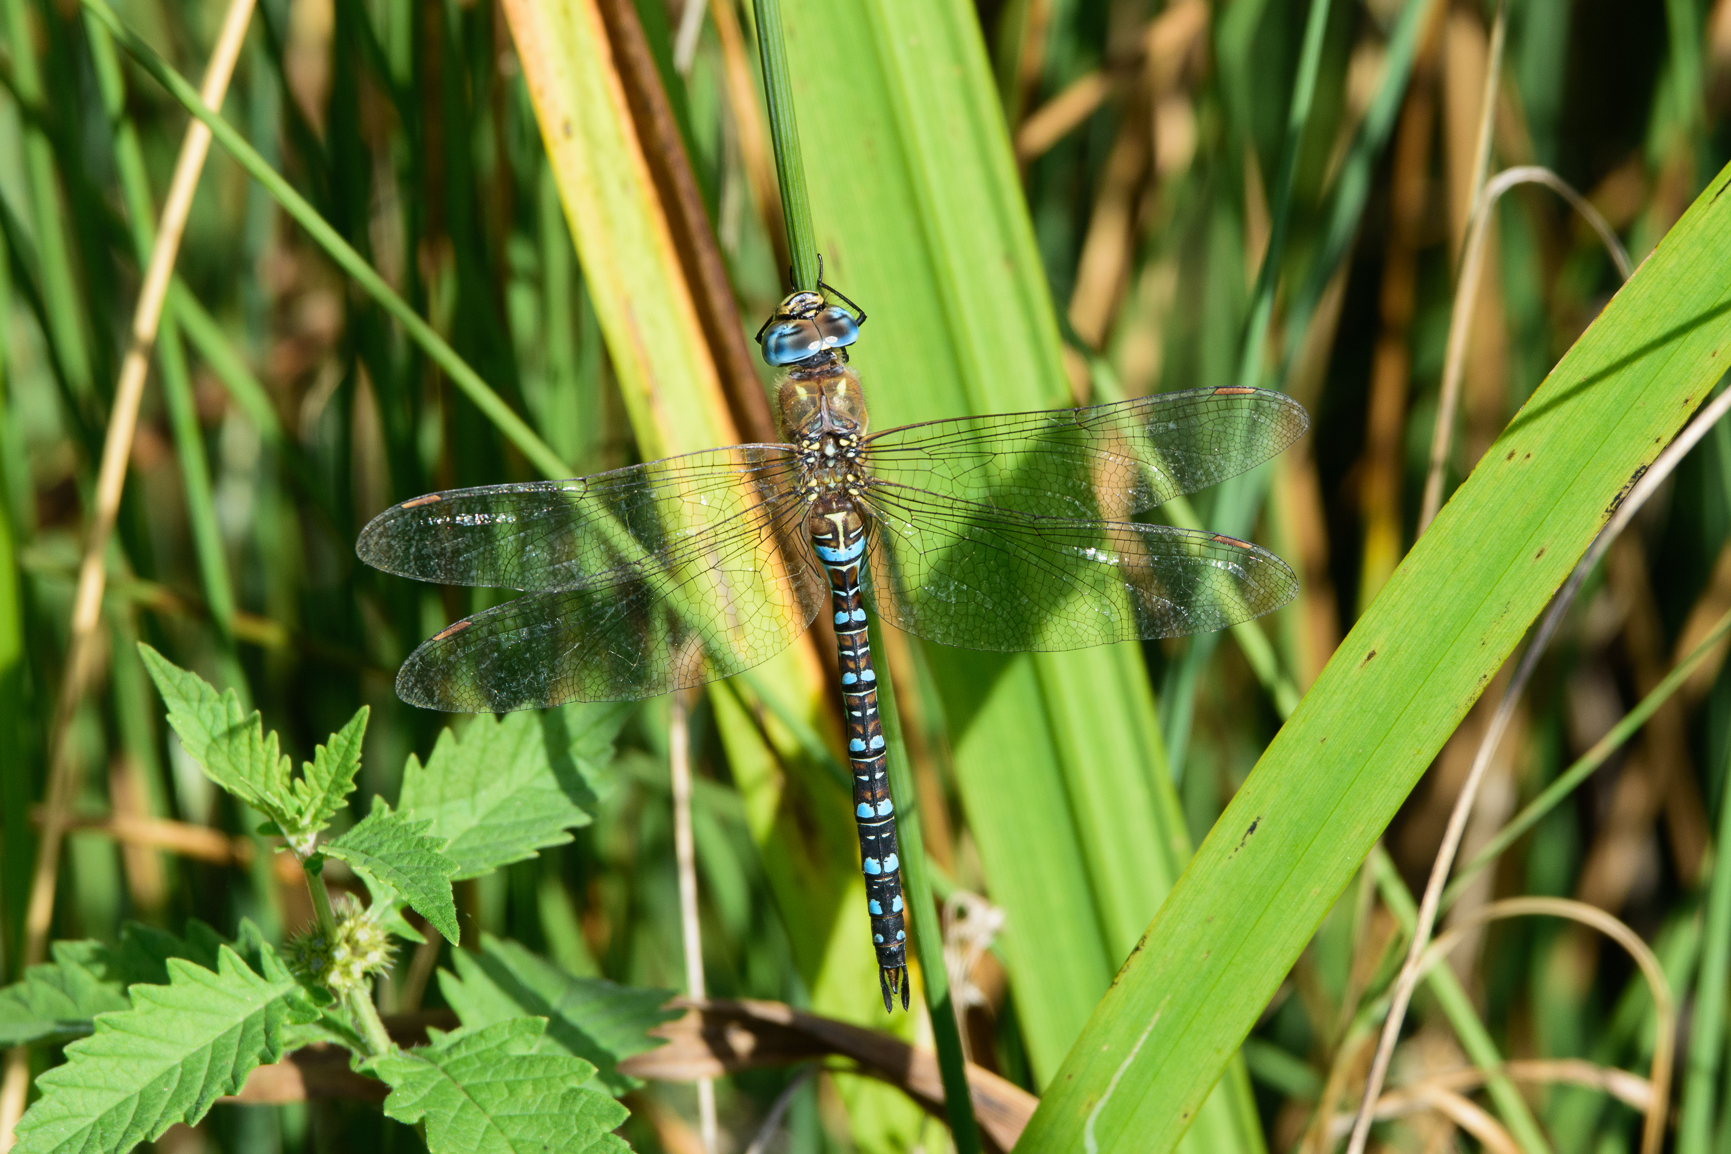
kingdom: Animalia
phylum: Arthropoda
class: Insecta
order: Odonata
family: Aeshnidae
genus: Aeshna
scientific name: Aeshna mixta
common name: Migrant hawker
